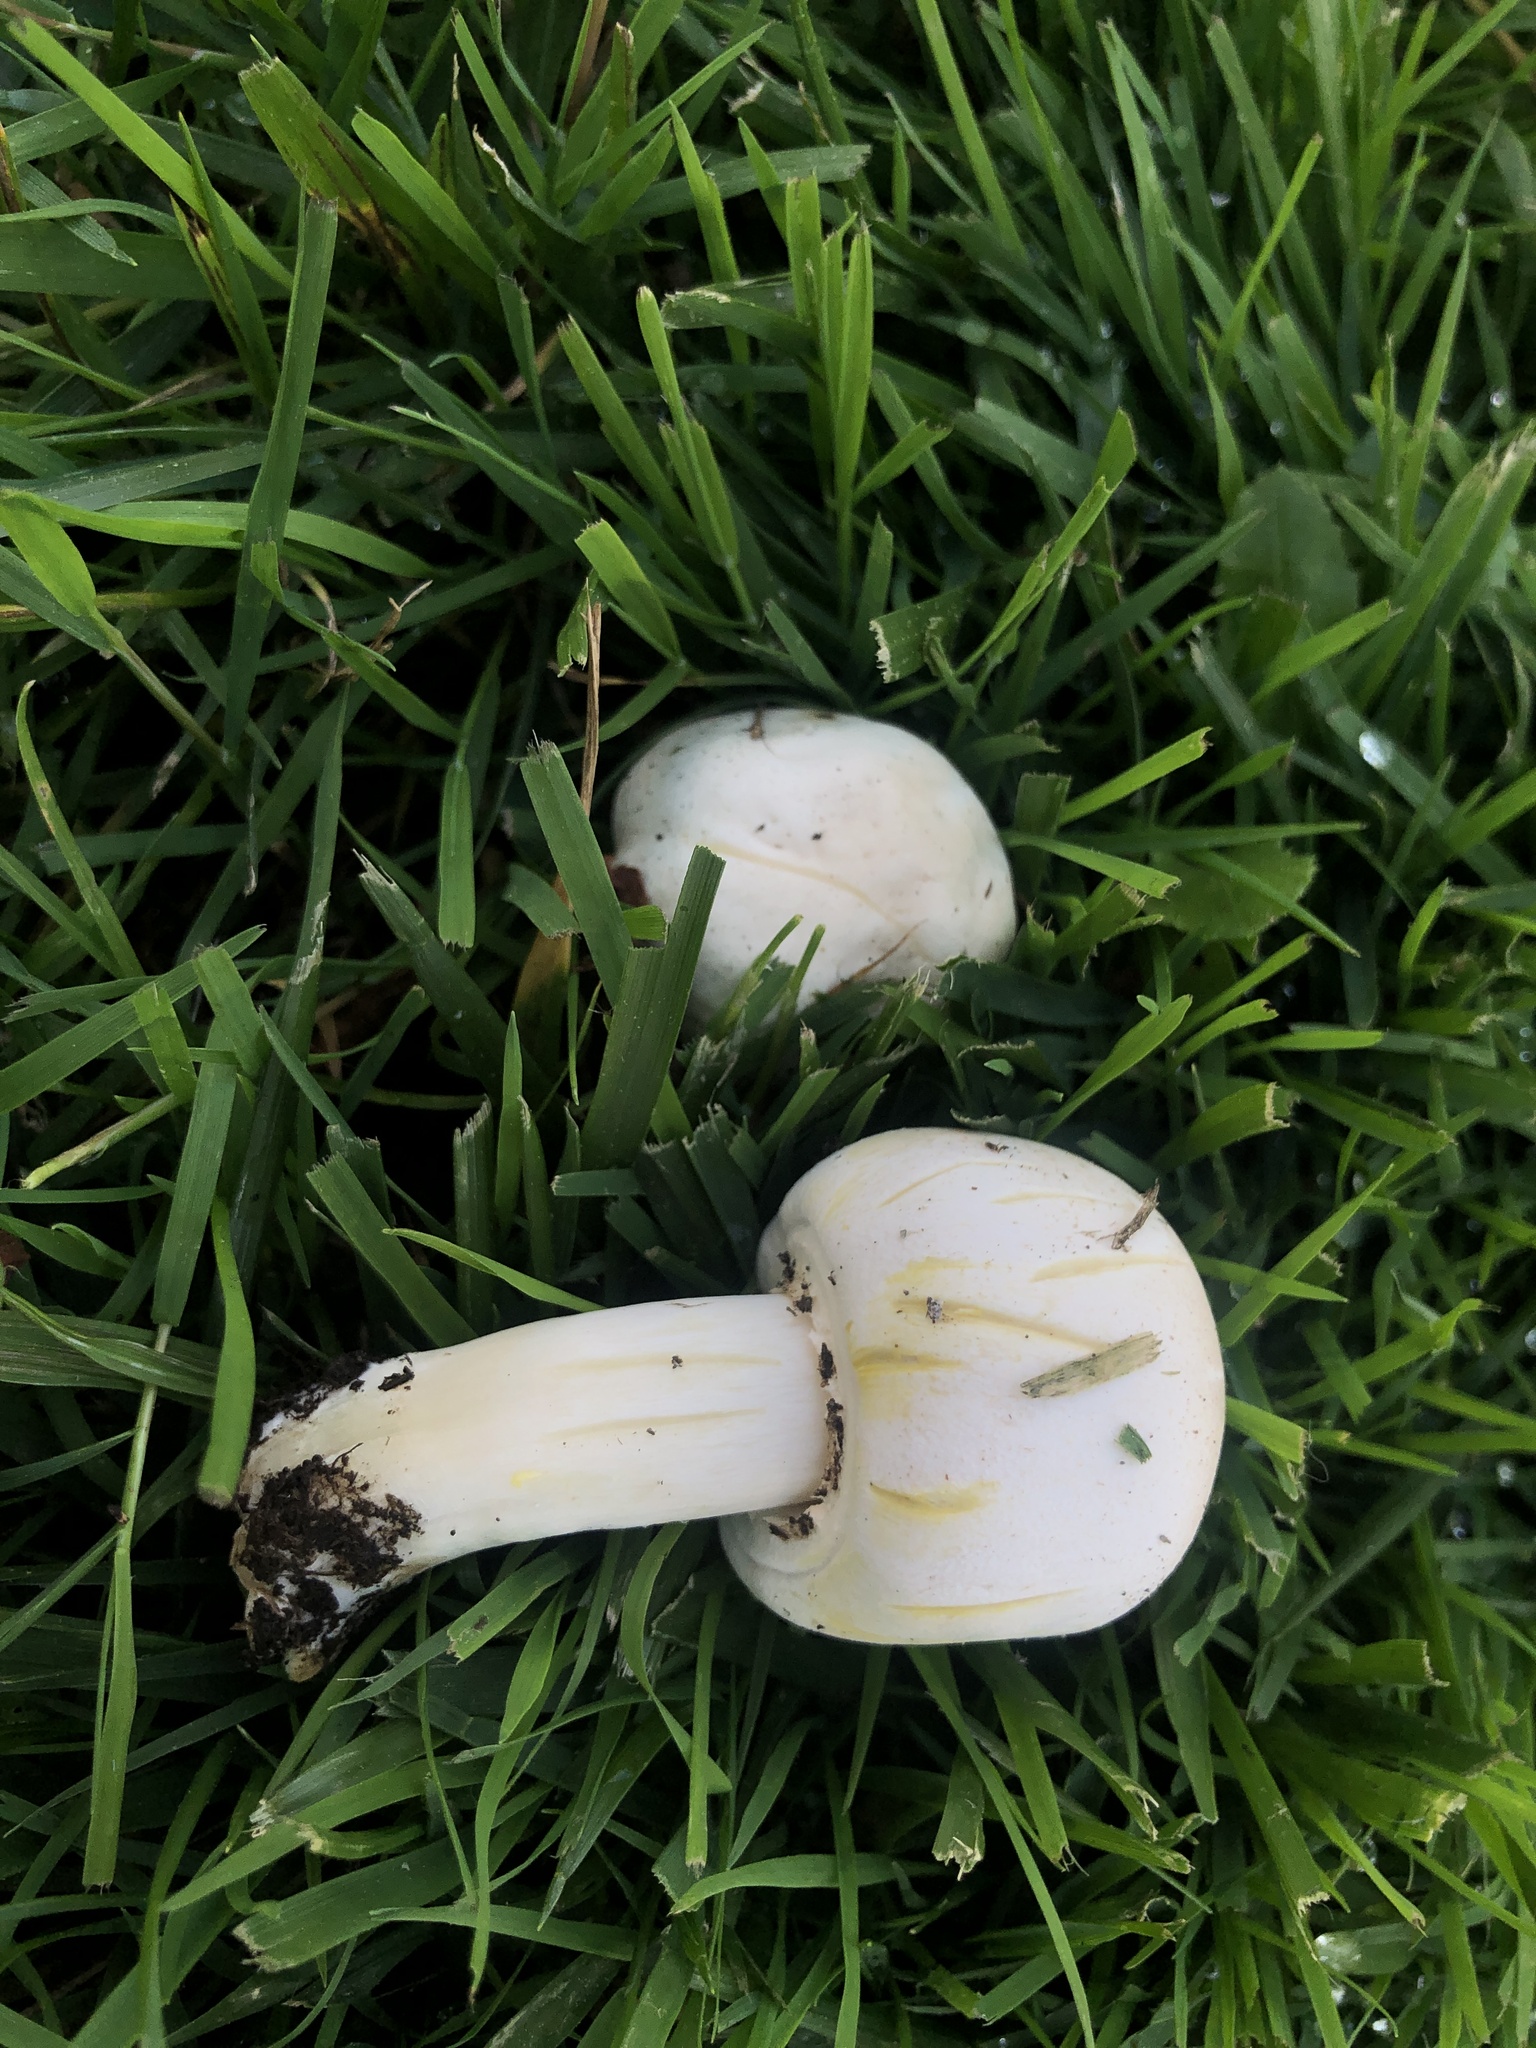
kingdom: Fungi
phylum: Basidiomycota
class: Agaricomycetes
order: Agaricales
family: Agaricaceae
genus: Agaricus
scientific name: Agaricus xanthodermus
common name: Yellow stainer
